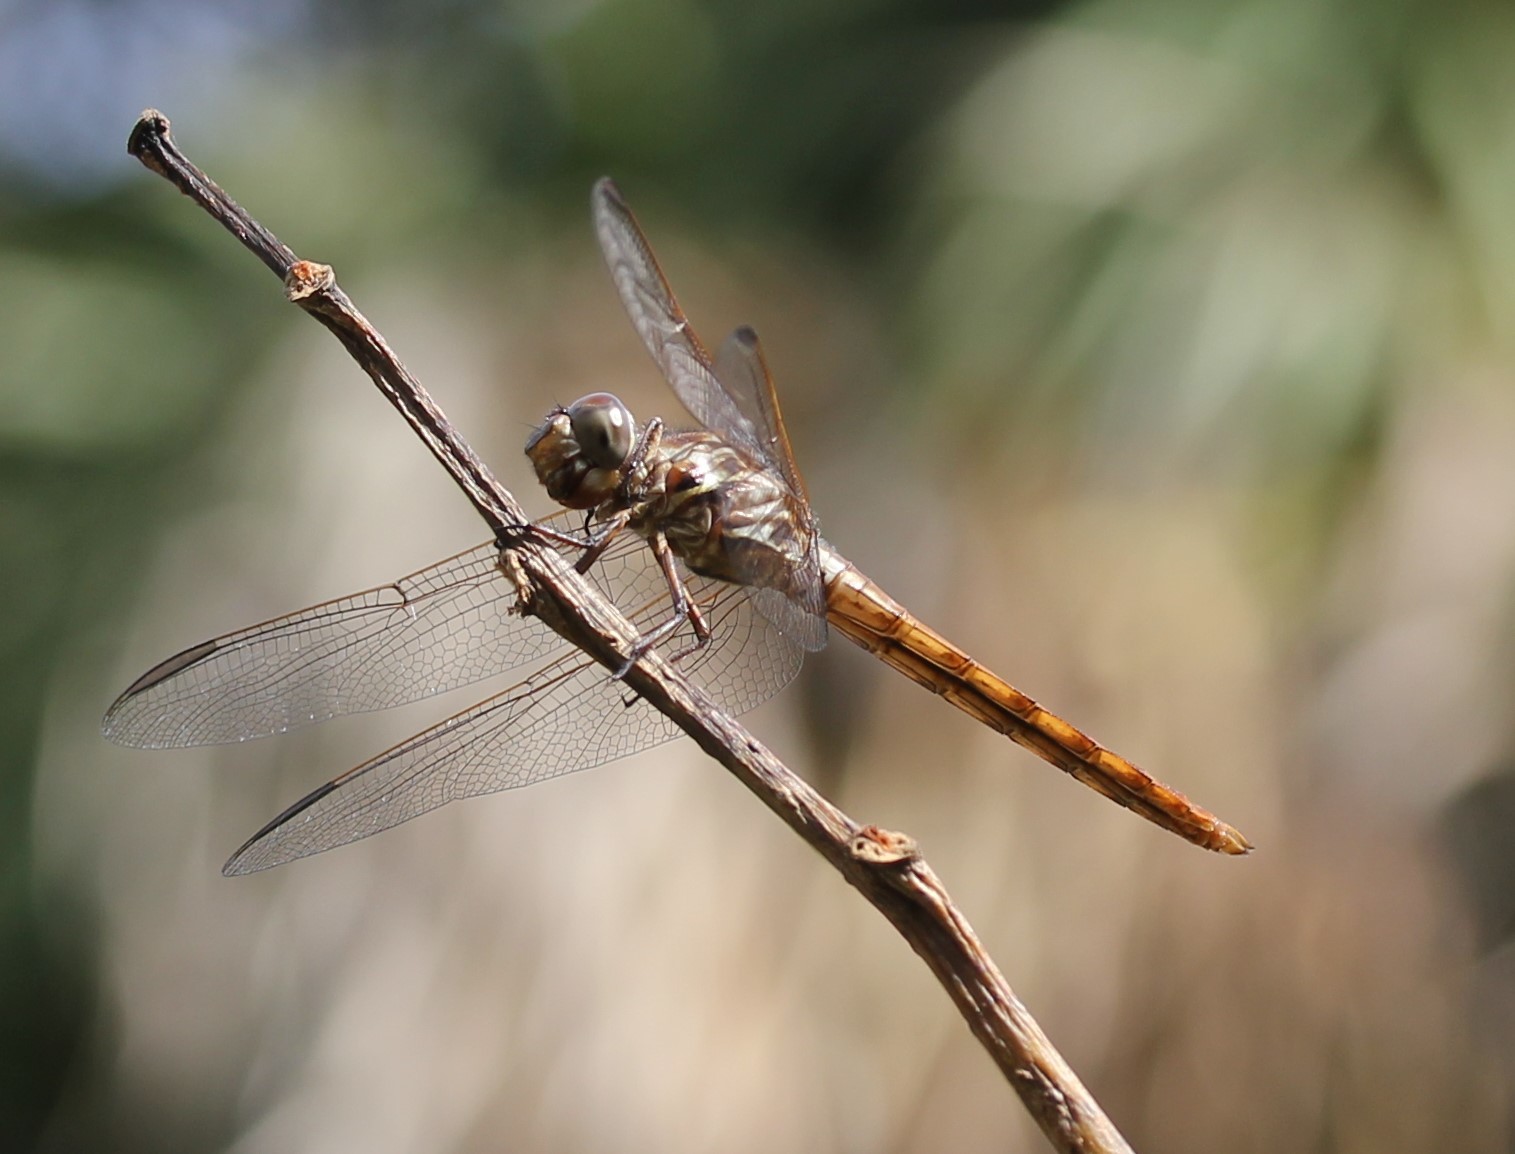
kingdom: Animalia
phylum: Arthropoda
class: Insecta
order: Odonata
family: Libellulidae
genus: Orthemis
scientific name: Orthemis ferruginea
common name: Roseate skimmer
